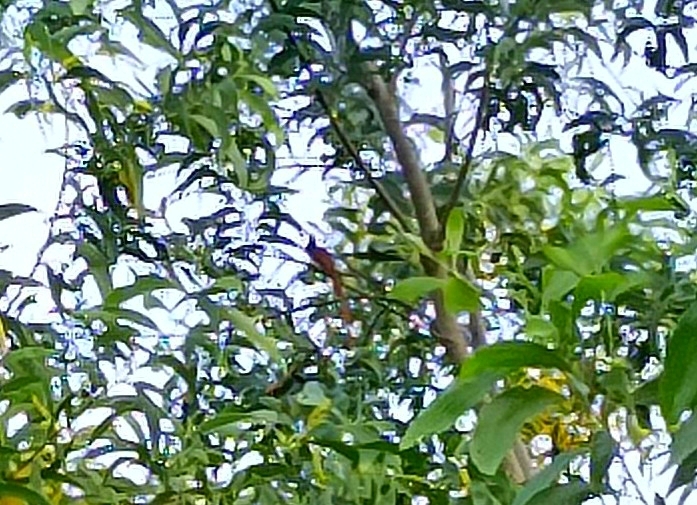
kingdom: Animalia
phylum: Chordata
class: Aves
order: Passeriformes
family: Monarchidae
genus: Terpsiphone
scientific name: Terpsiphone paradisi
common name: Indian paradise flycatcher
